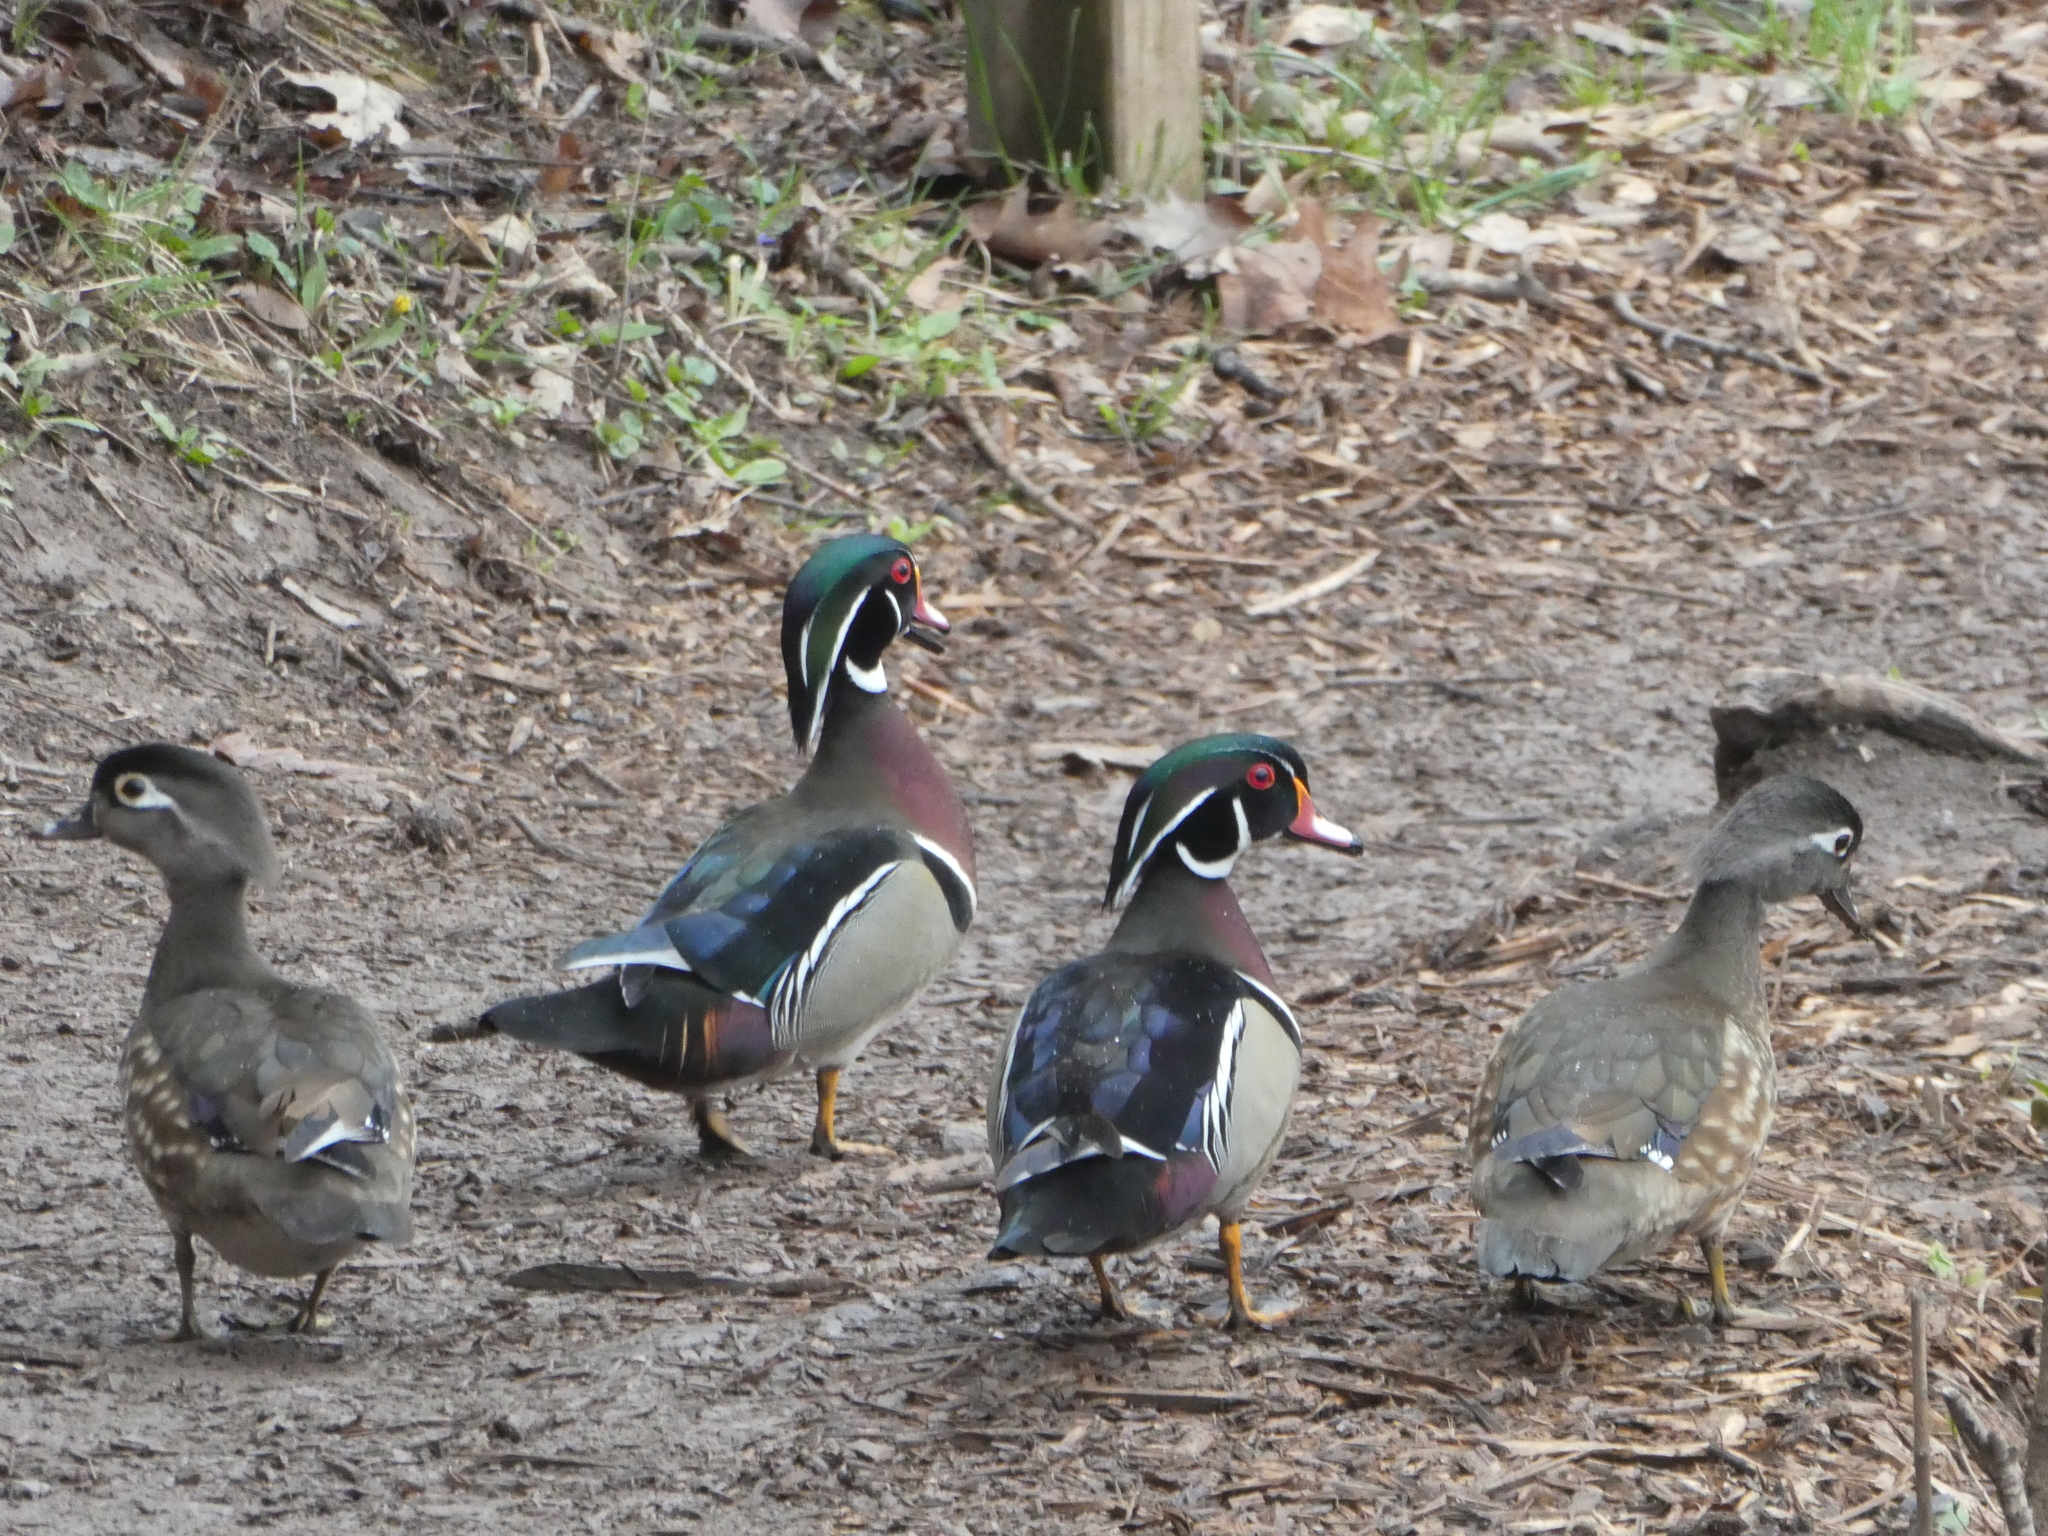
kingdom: Animalia
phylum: Chordata
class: Aves
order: Anseriformes
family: Anatidae
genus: Aix
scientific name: Aix sponsa
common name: Wood duck
